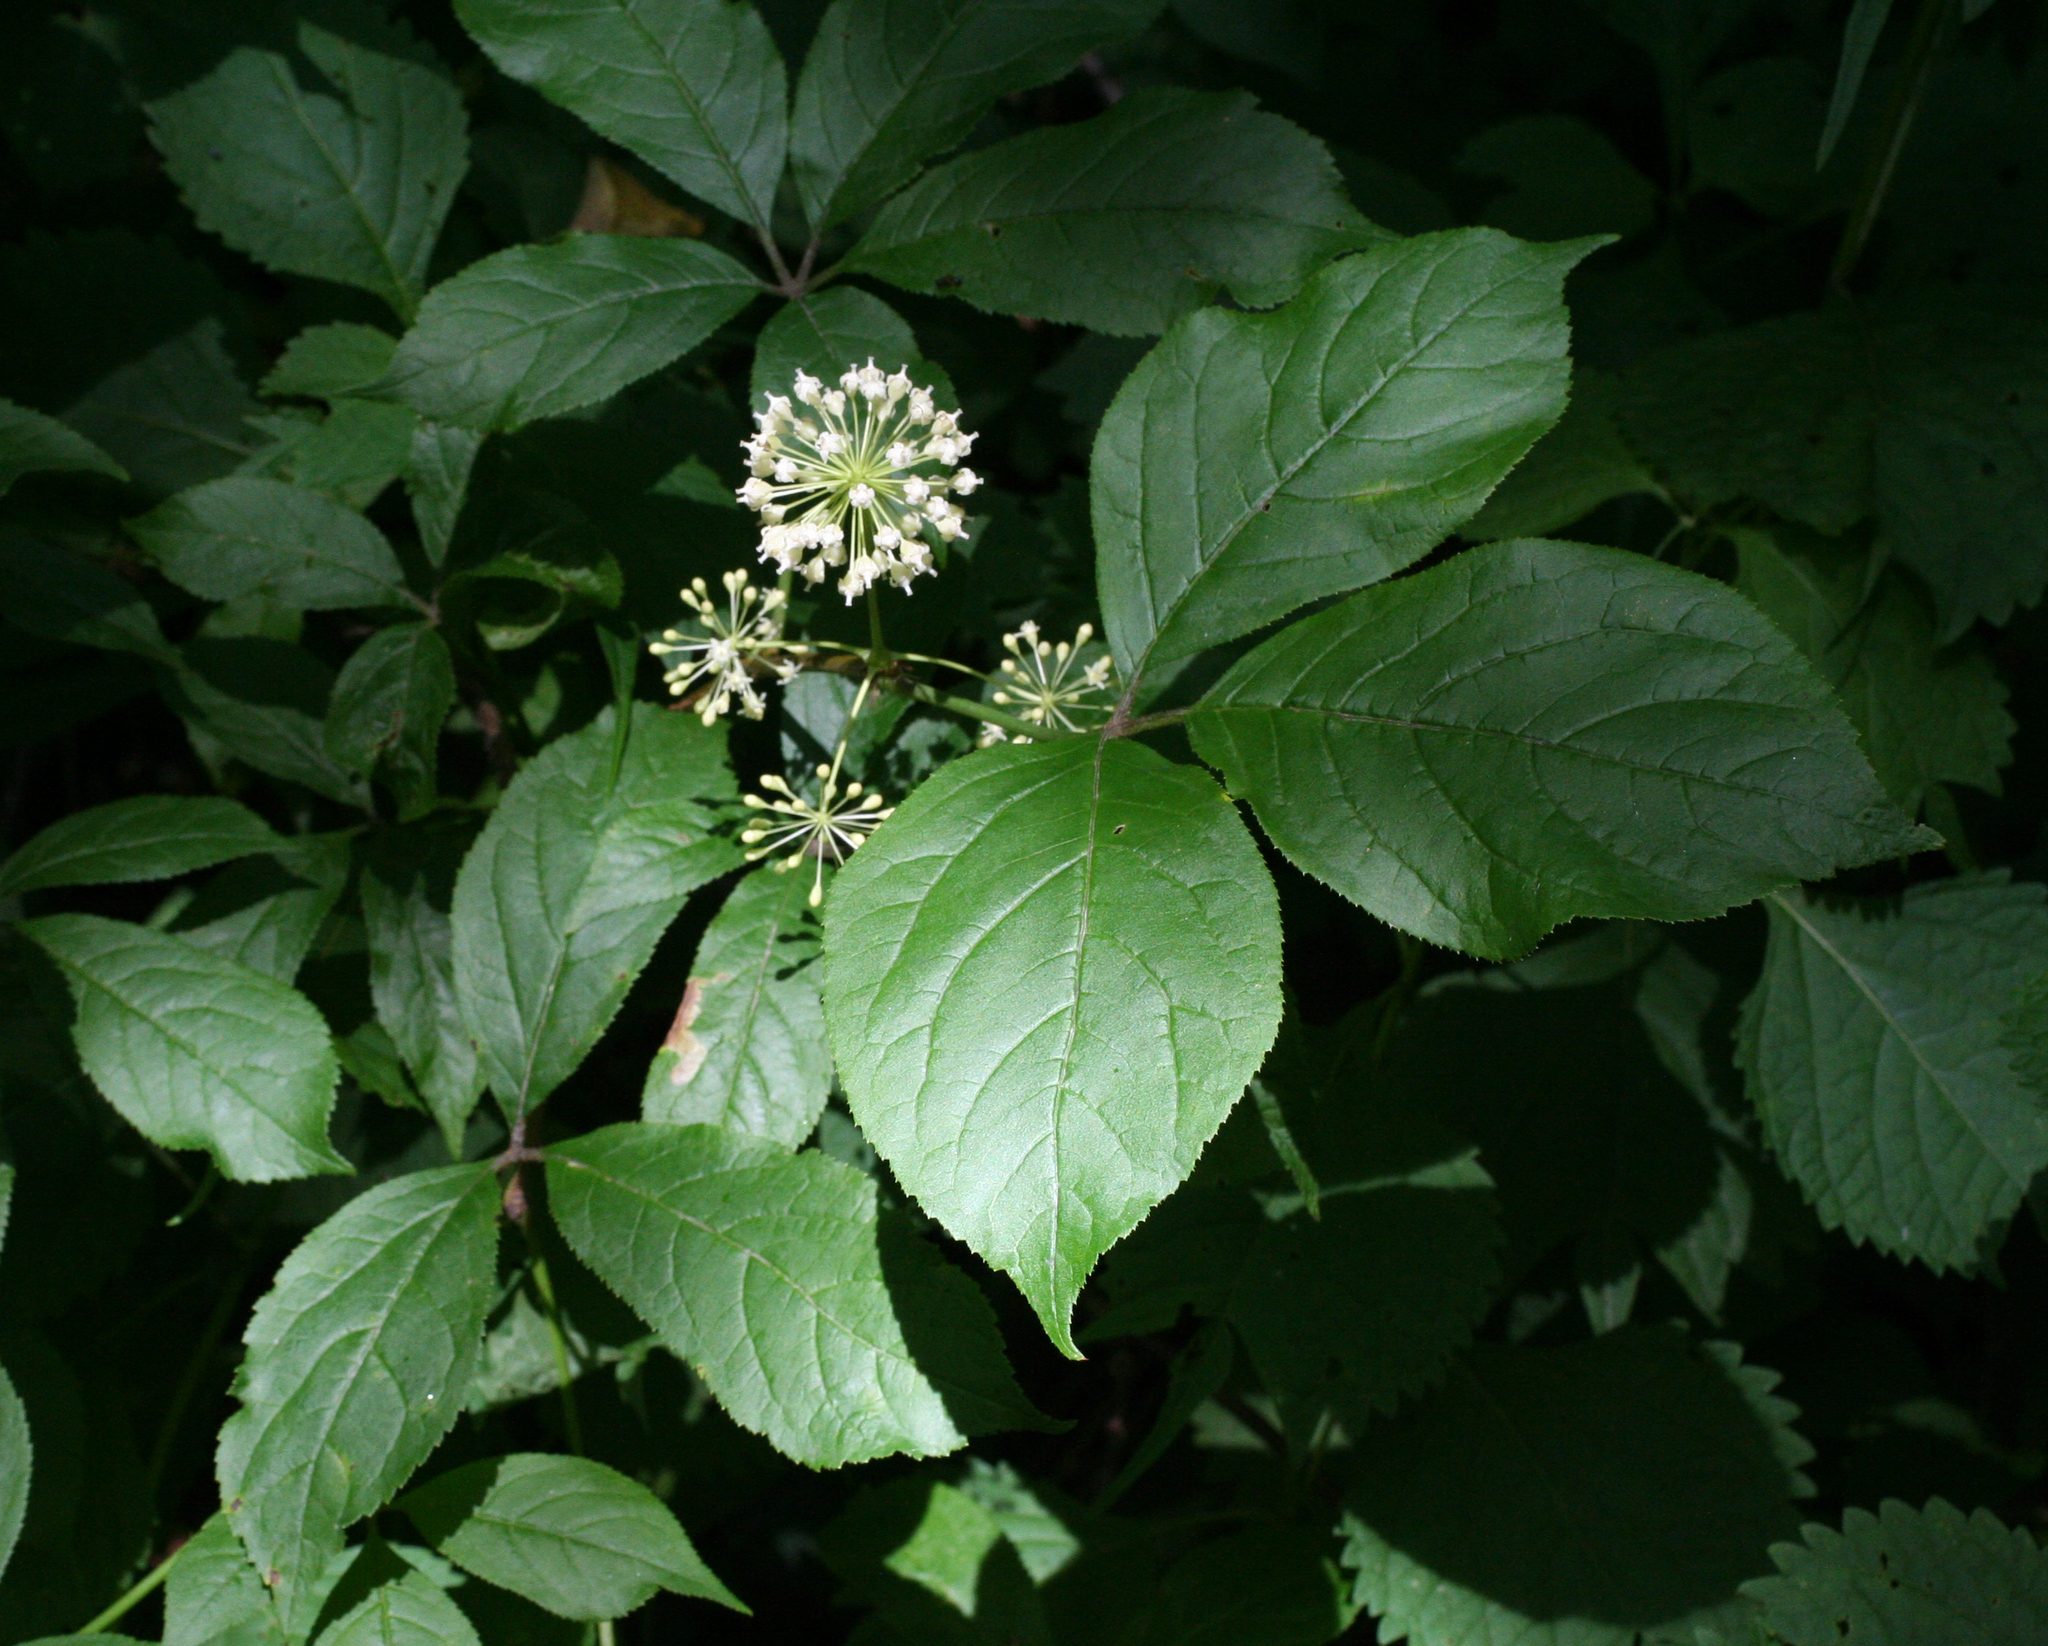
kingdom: Plantae
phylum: Tracheophyta
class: Magnoliopsida
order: Apiales
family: Araliaceae
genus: Eleutherococcus
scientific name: Eleutherococcus senticosus
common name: Siberian-ginseng
